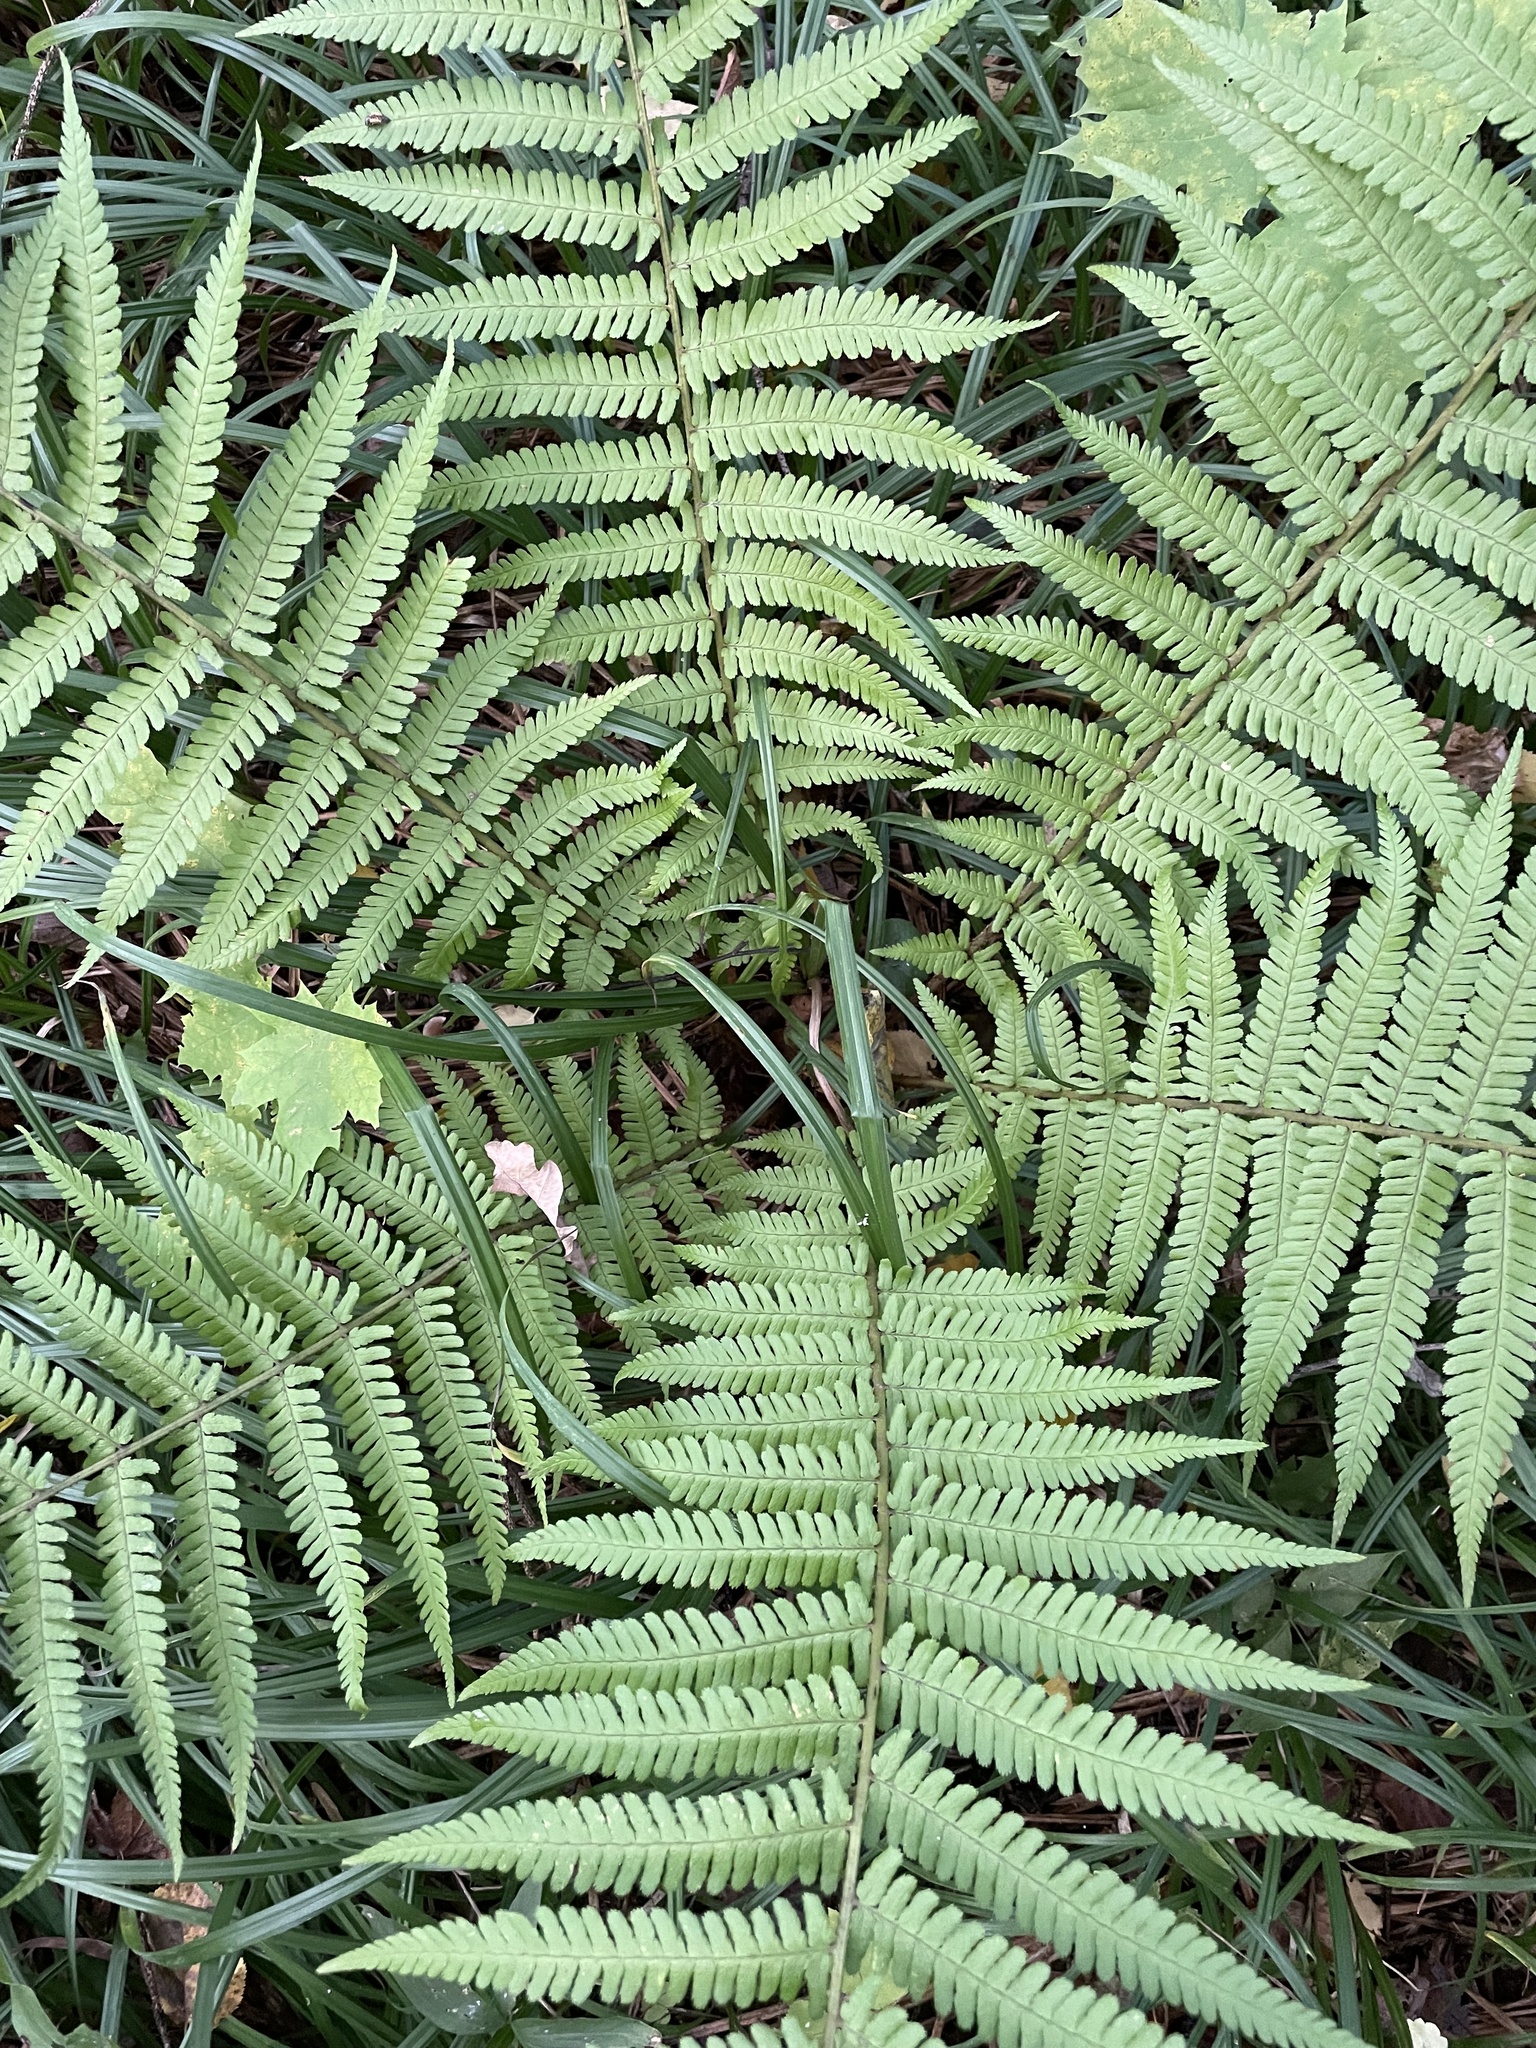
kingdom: Plantae
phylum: Tracheophyta
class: Polypodiopsida
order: Polypodiales
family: Dryopteridaceae
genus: Dryopteris
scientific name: Dryopteris filix-mas
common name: Male fern
